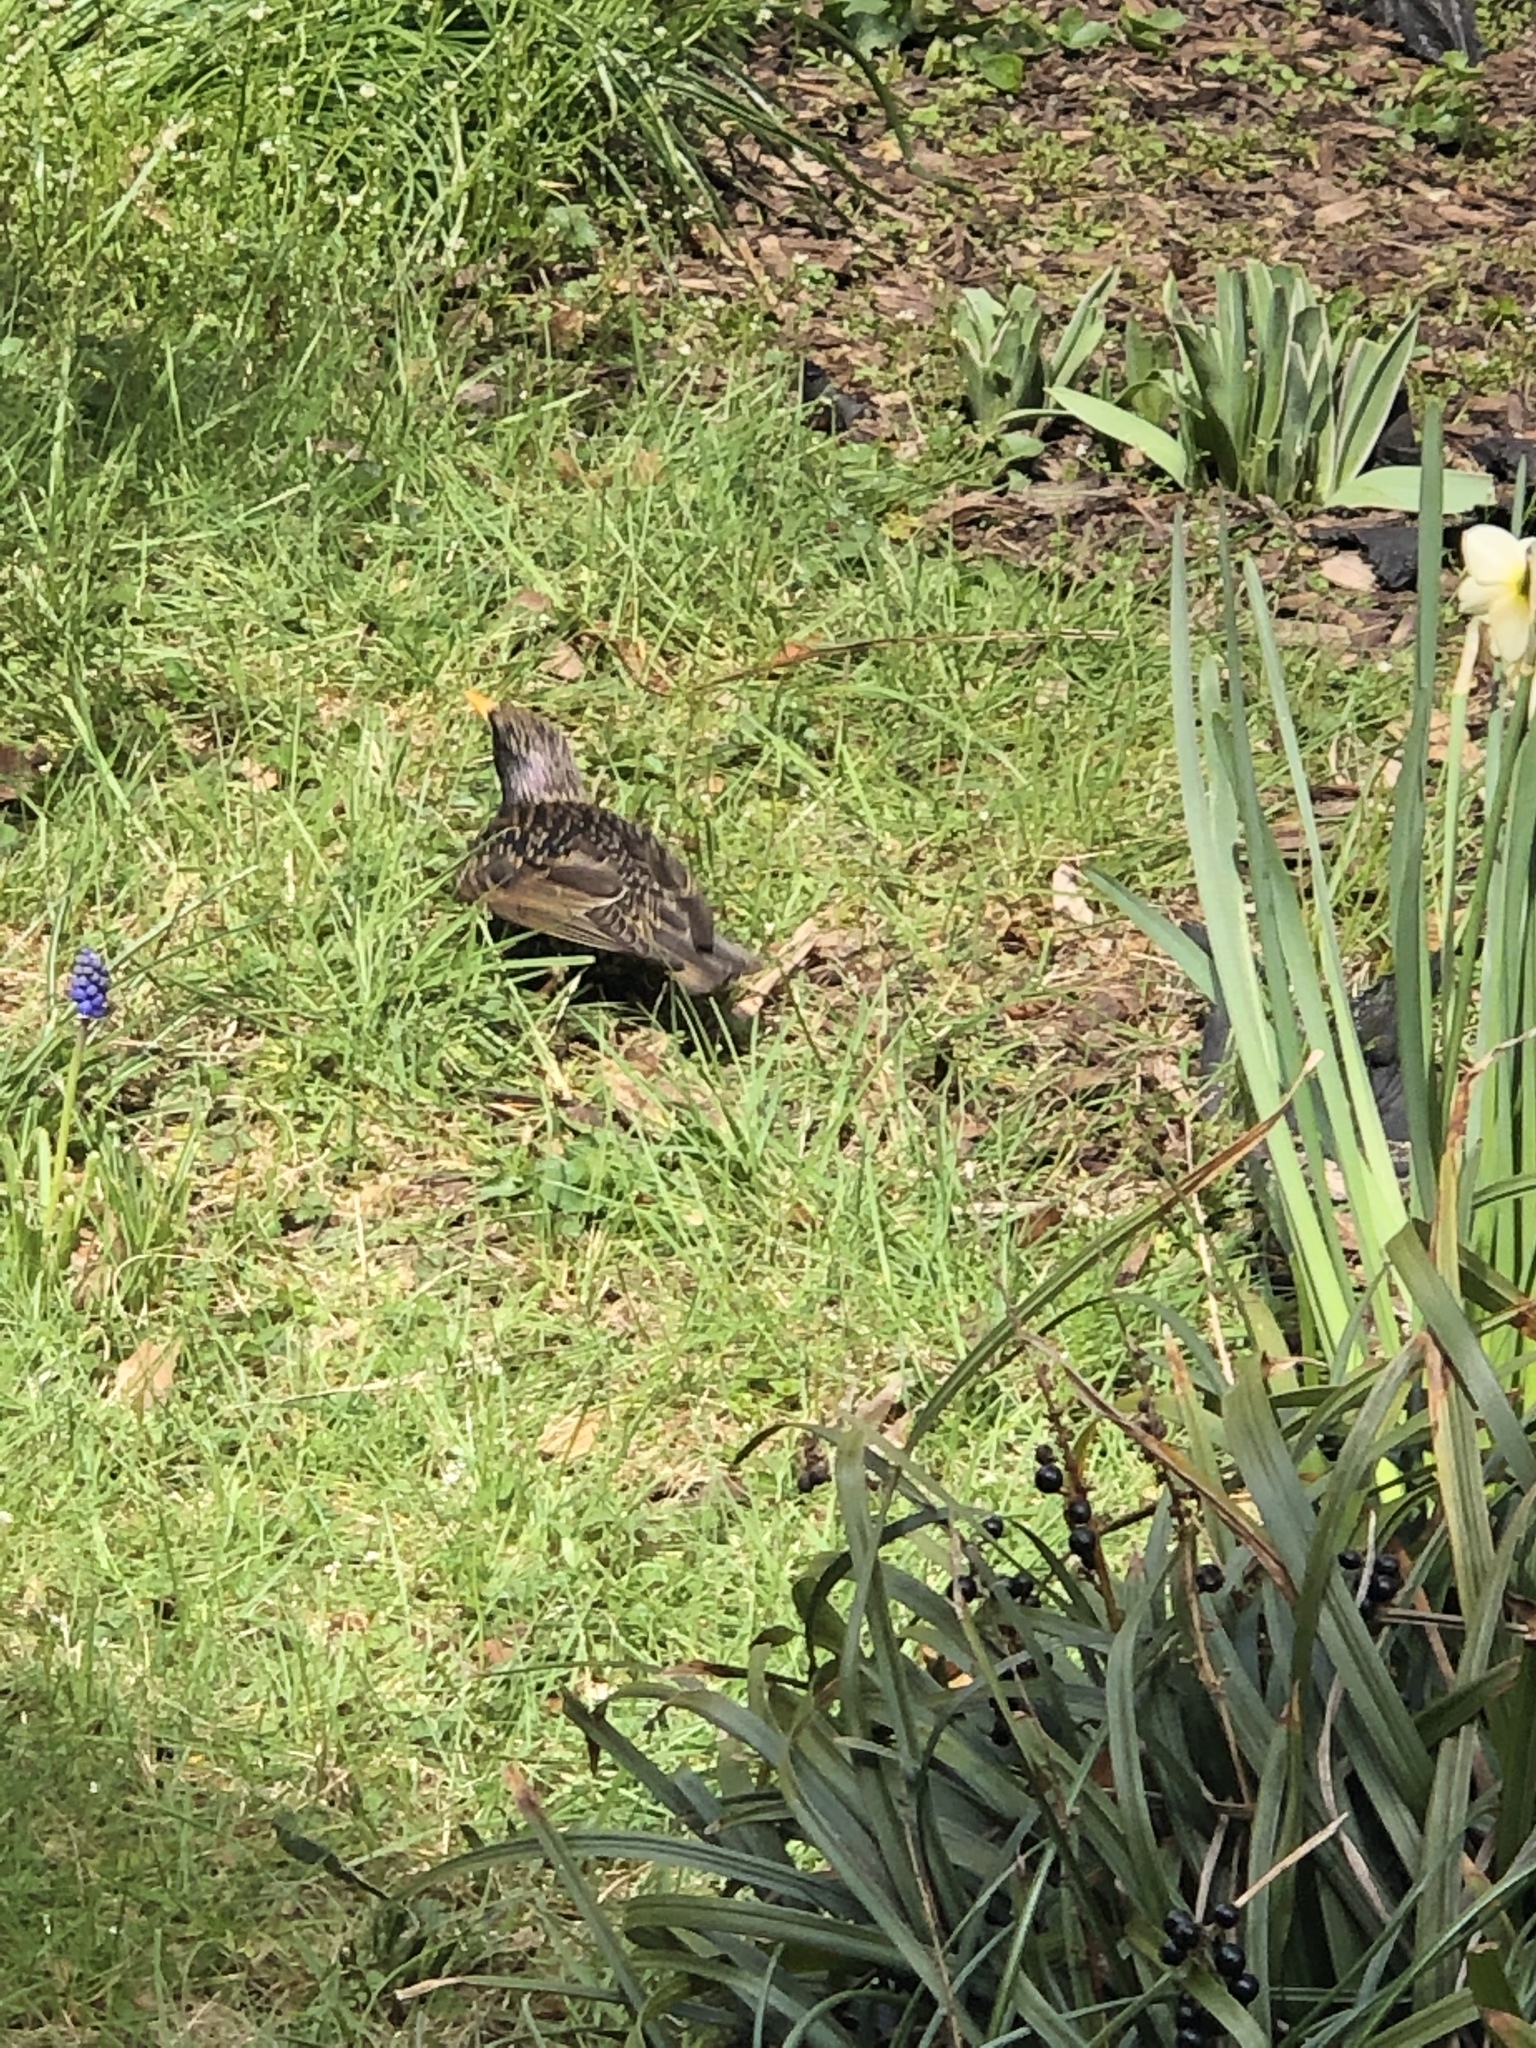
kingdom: Animalia
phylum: Chordata
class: Aves
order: Passeriformes
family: Sturnidae
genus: Sturnus
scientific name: Sturnus vulgaris
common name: Common starling
